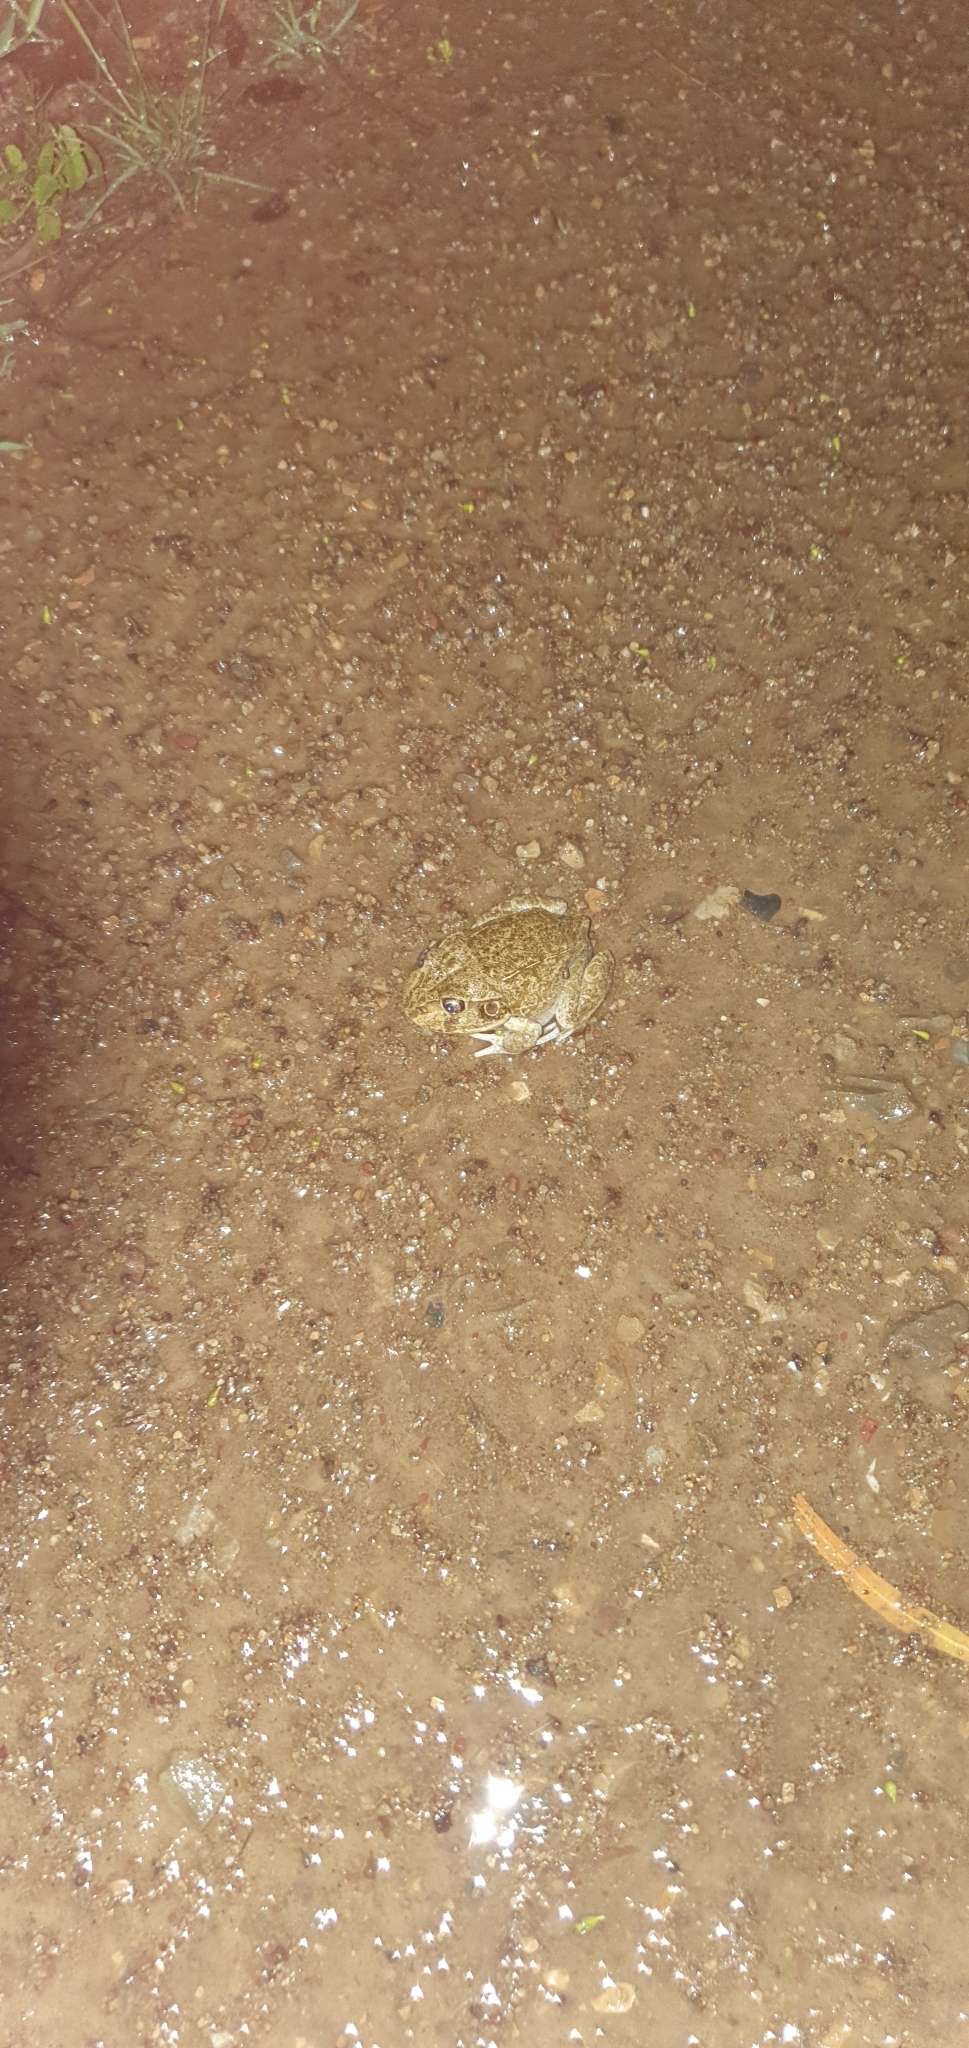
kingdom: Animalia
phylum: Chordata
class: Amphibia
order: Anura
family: Pelodryadidae
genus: Ranoidea
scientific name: Ranoidea novaehollandiae
